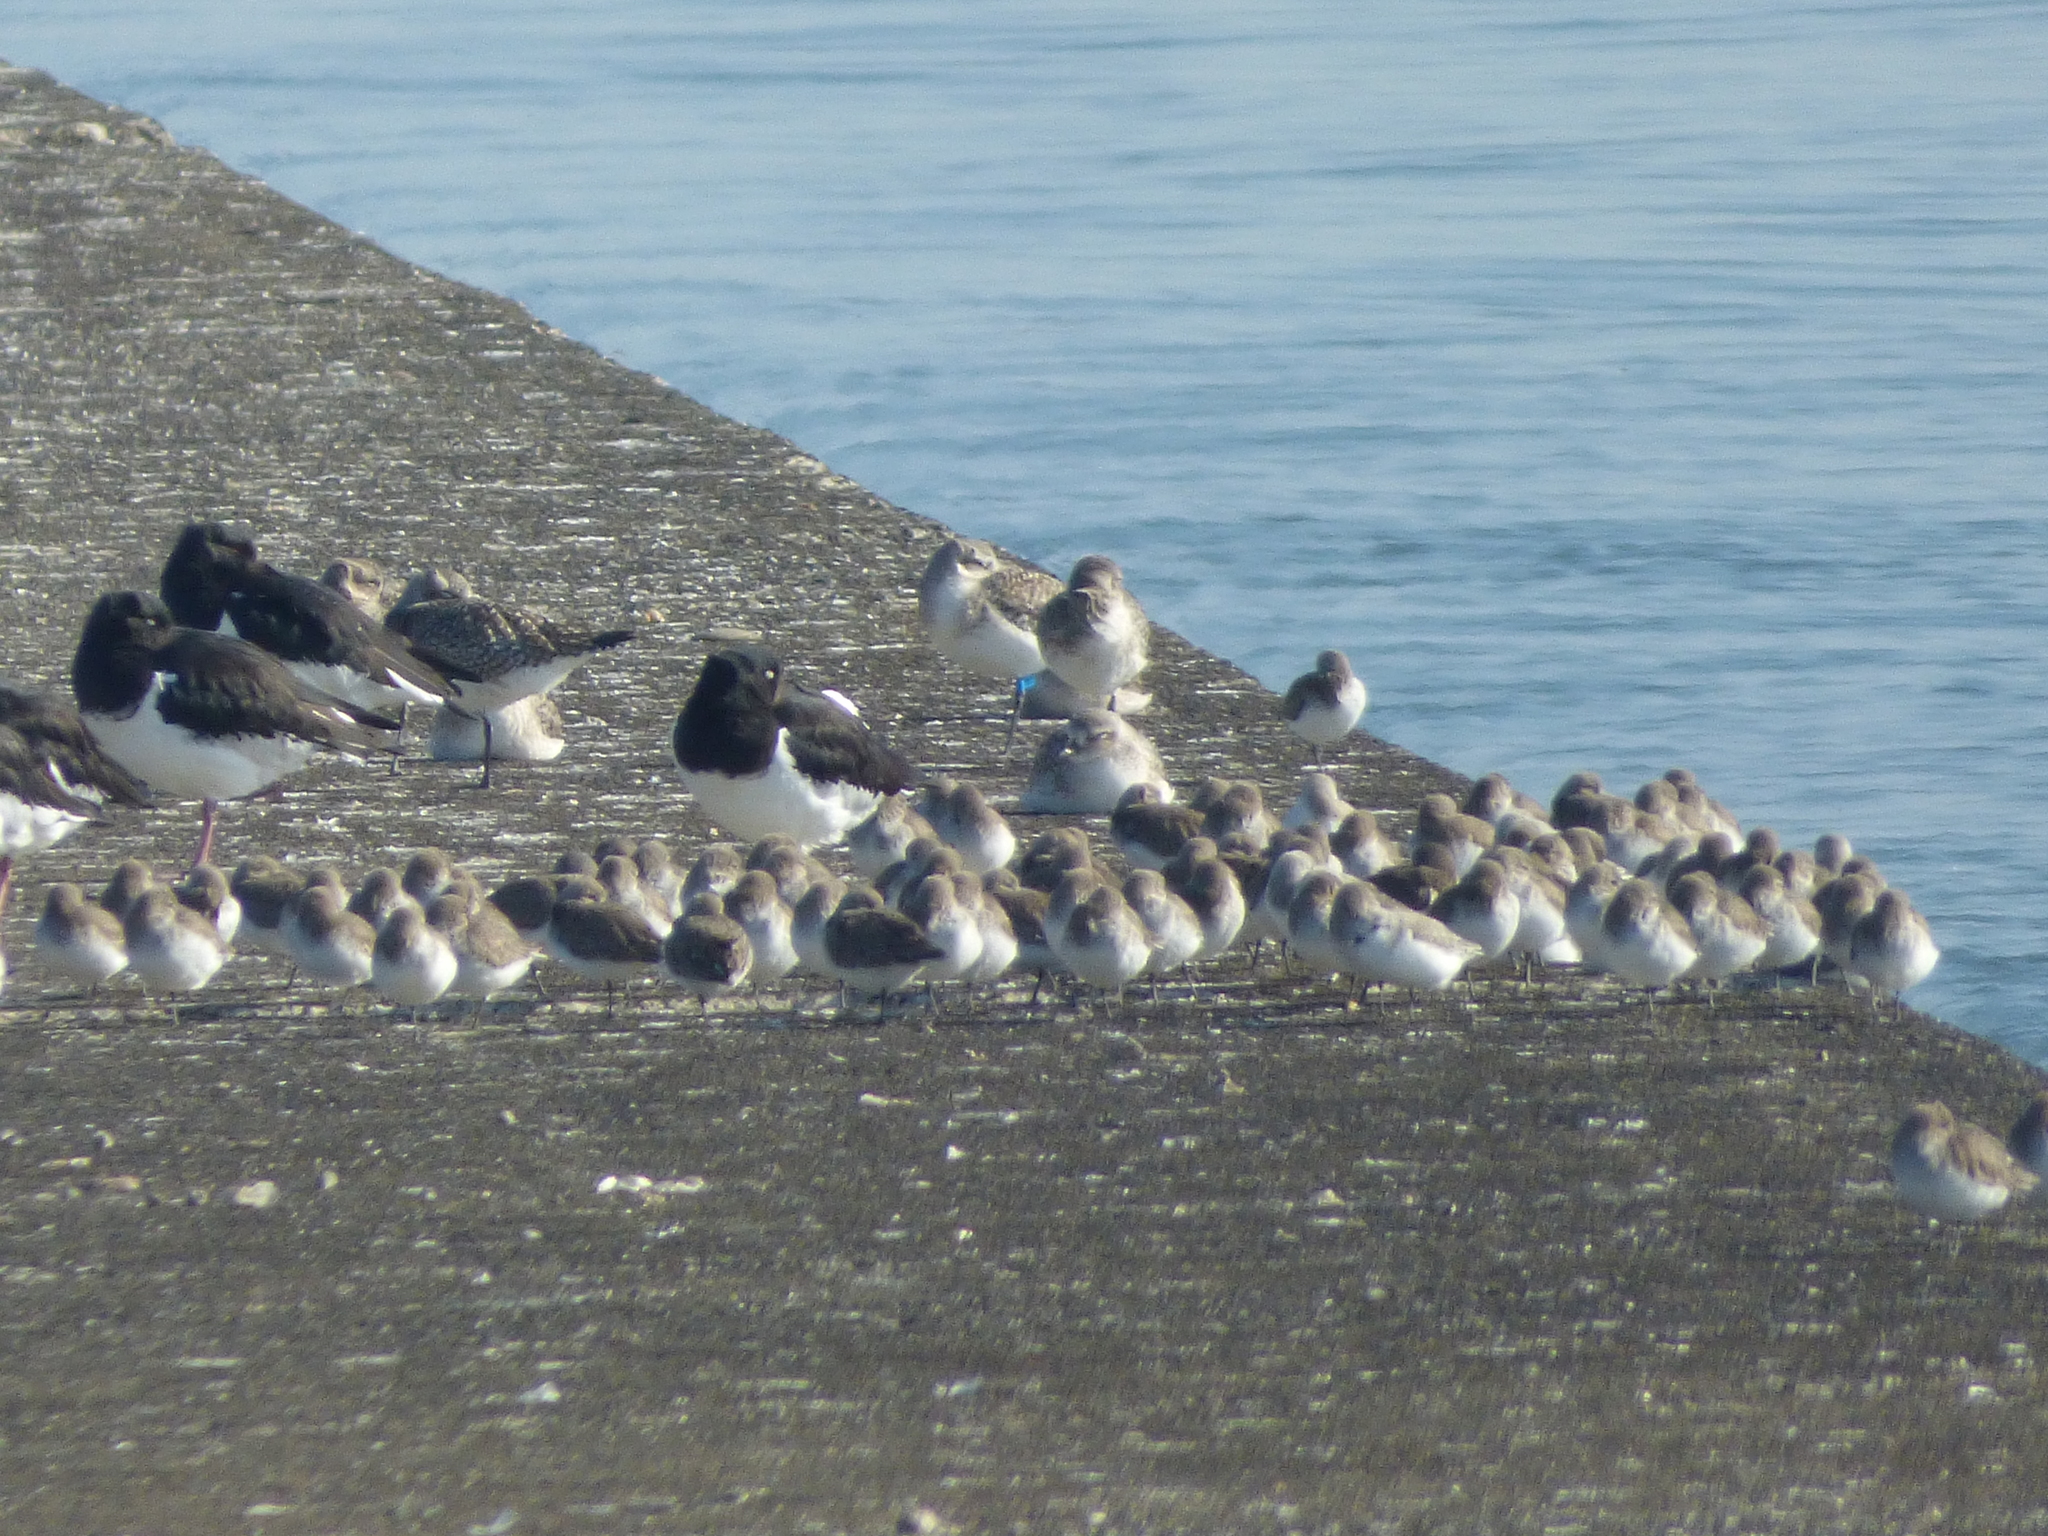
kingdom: Animalia
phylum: Chordata
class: Aves
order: Charadriiformes
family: Charadriidae
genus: Pluvialis
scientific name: Pluvialis squatarola
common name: Grey plover
